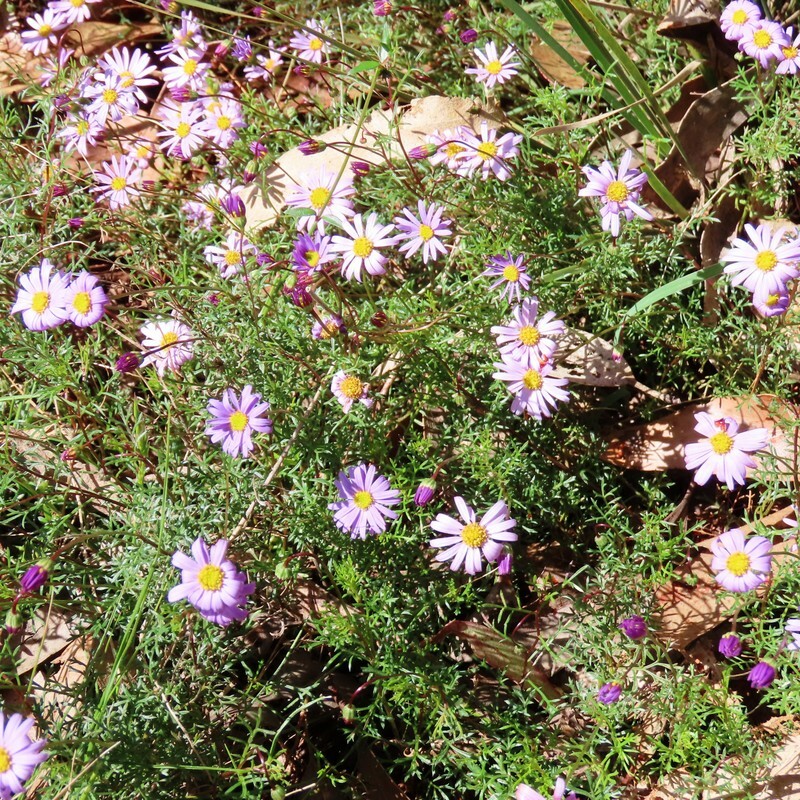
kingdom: Plantae
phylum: Tracheophyta
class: Magnoliopsida
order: Asterales
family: Asteraceae
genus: Brachyscome
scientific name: Brachyscome multifida
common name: Cut-leaf daisy
